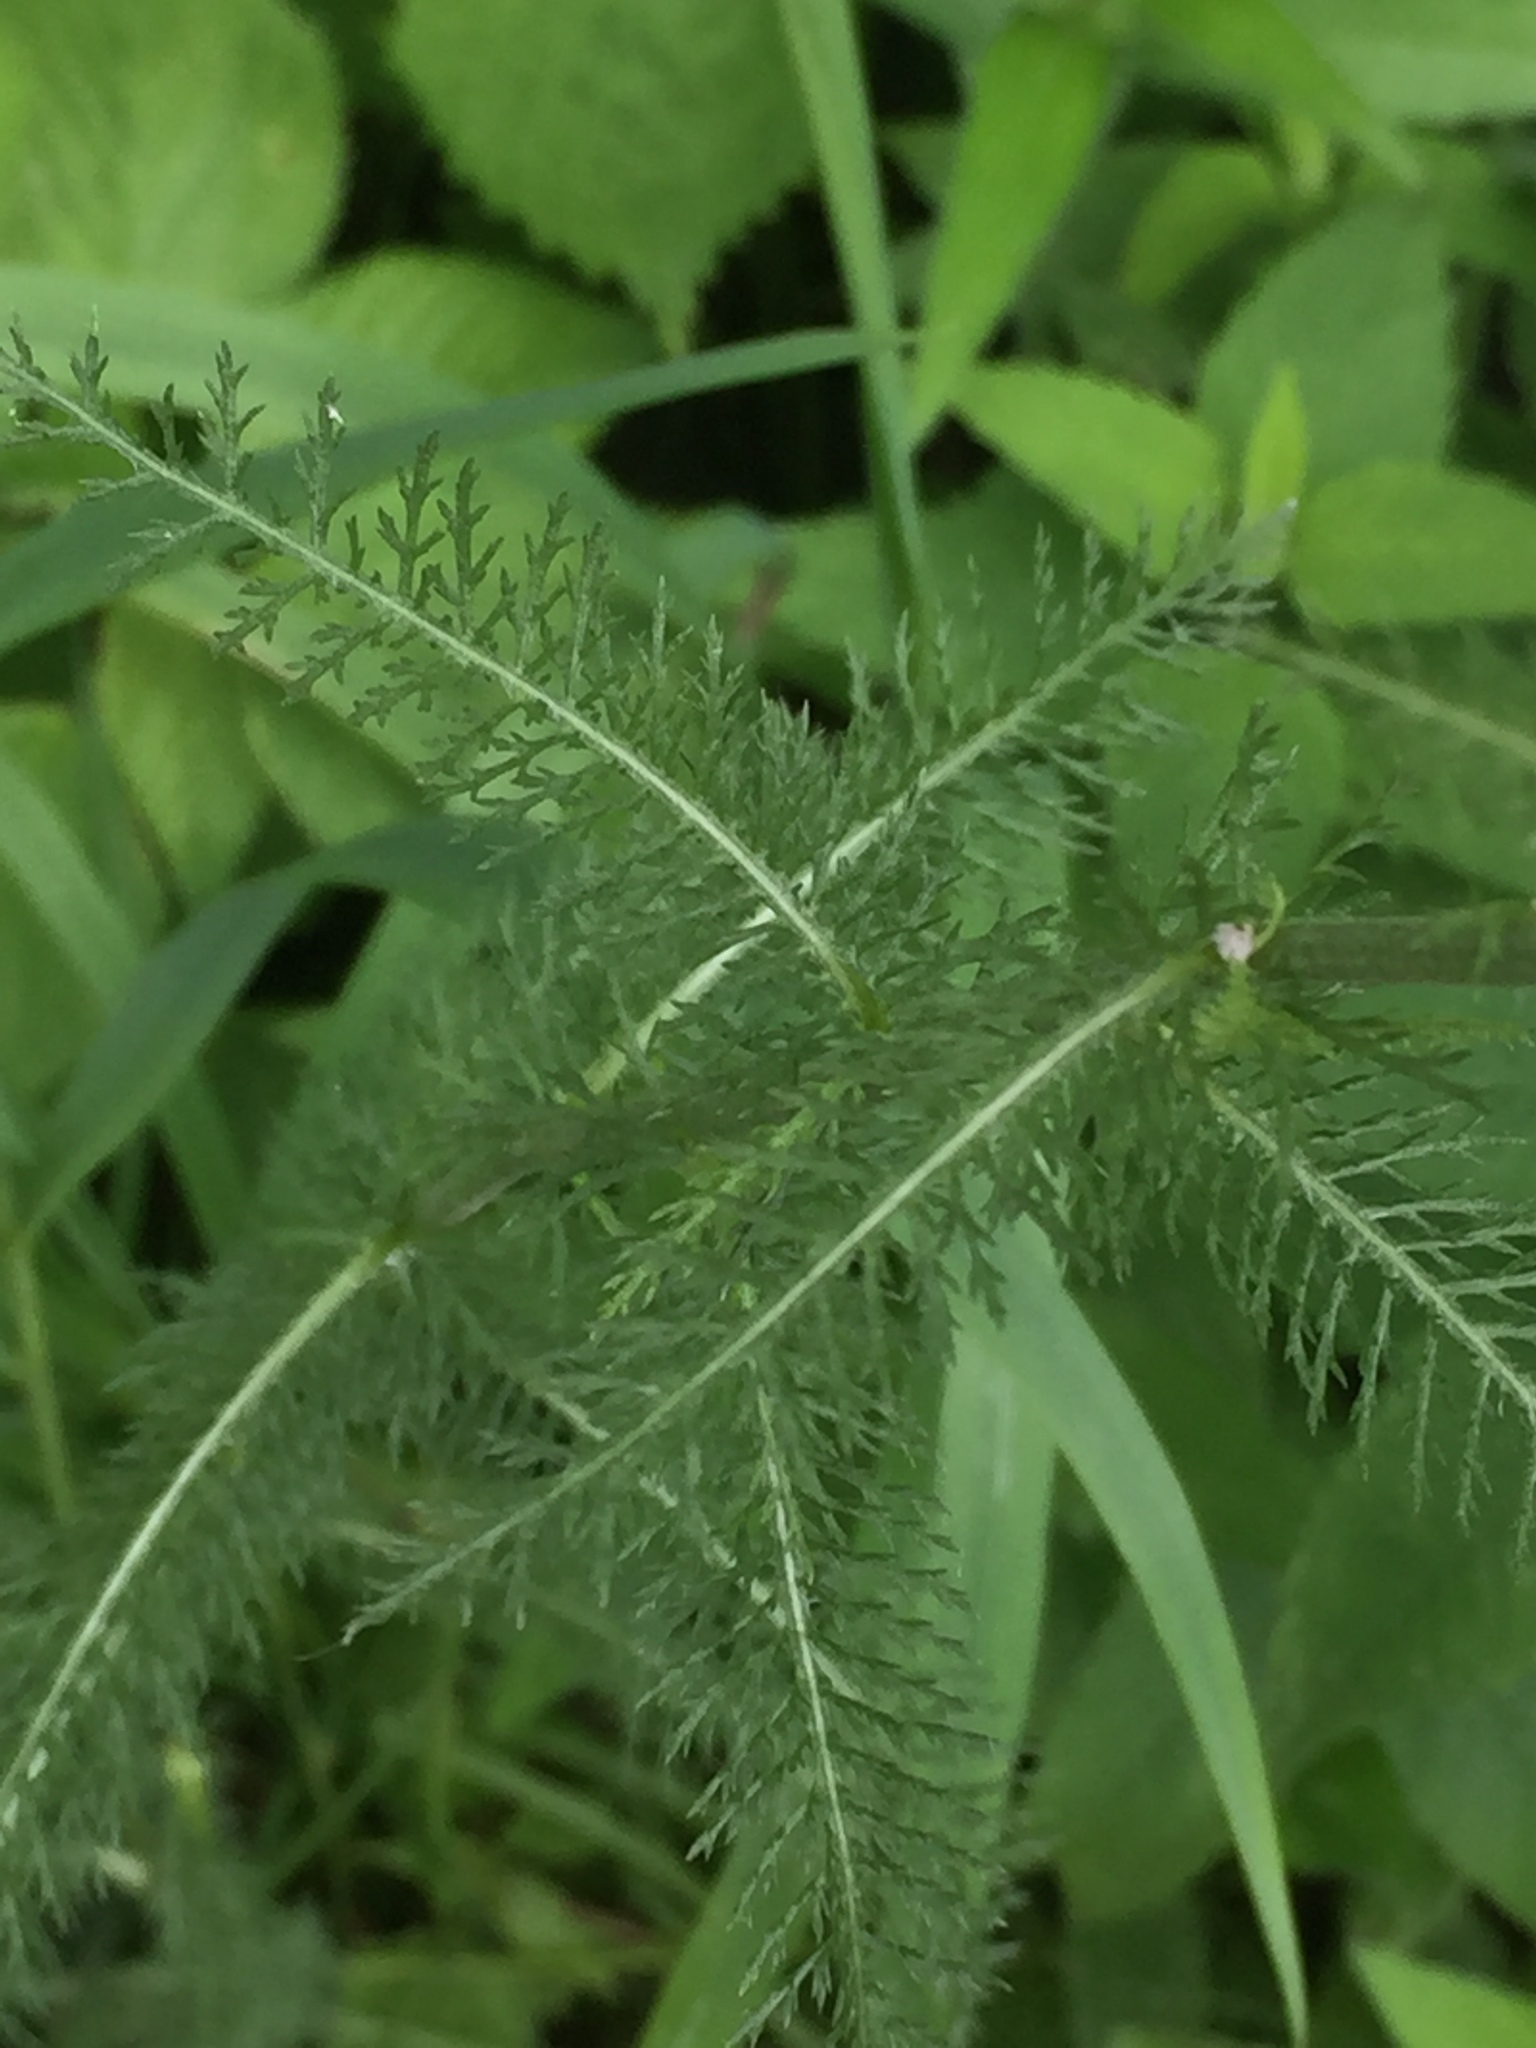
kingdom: Plantae
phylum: Tracheophyta
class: Magnoliopsida
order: Asterales
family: Asteraceae
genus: Achillea
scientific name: Achillea millefolium
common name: Yarrow
